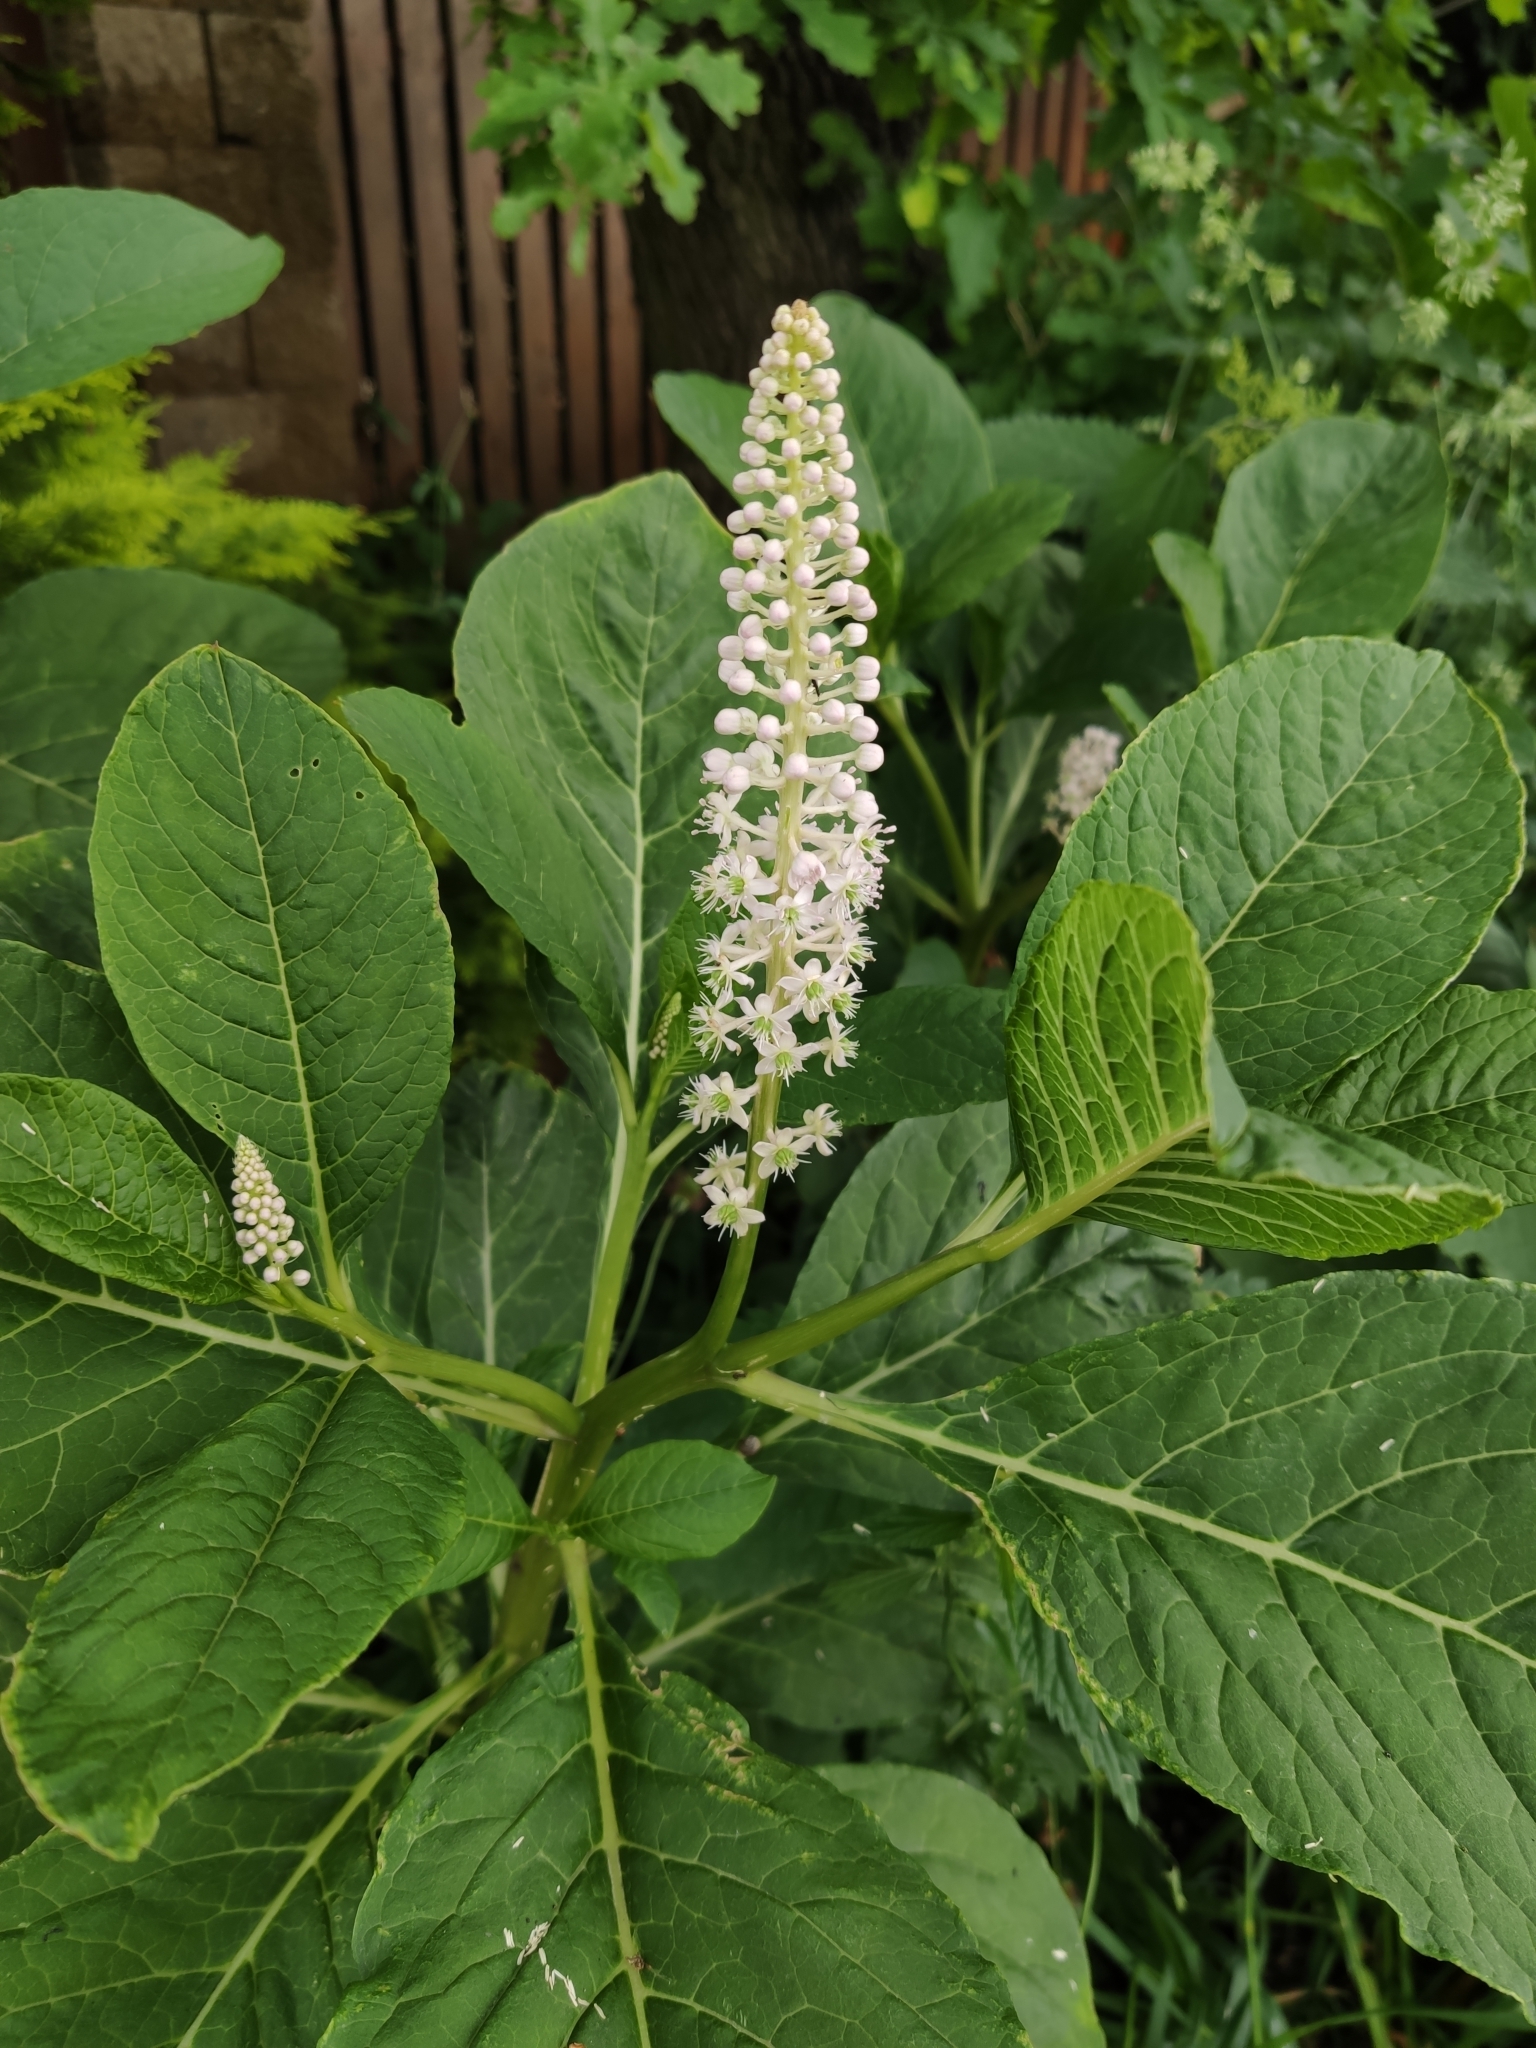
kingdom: Plantae
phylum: Tracheophyta
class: Magnoliopsida
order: Caryophyllales
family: Phytolaccaceae
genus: Phytolacca
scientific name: Phytolacca acinosa
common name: Indian pokeweed
